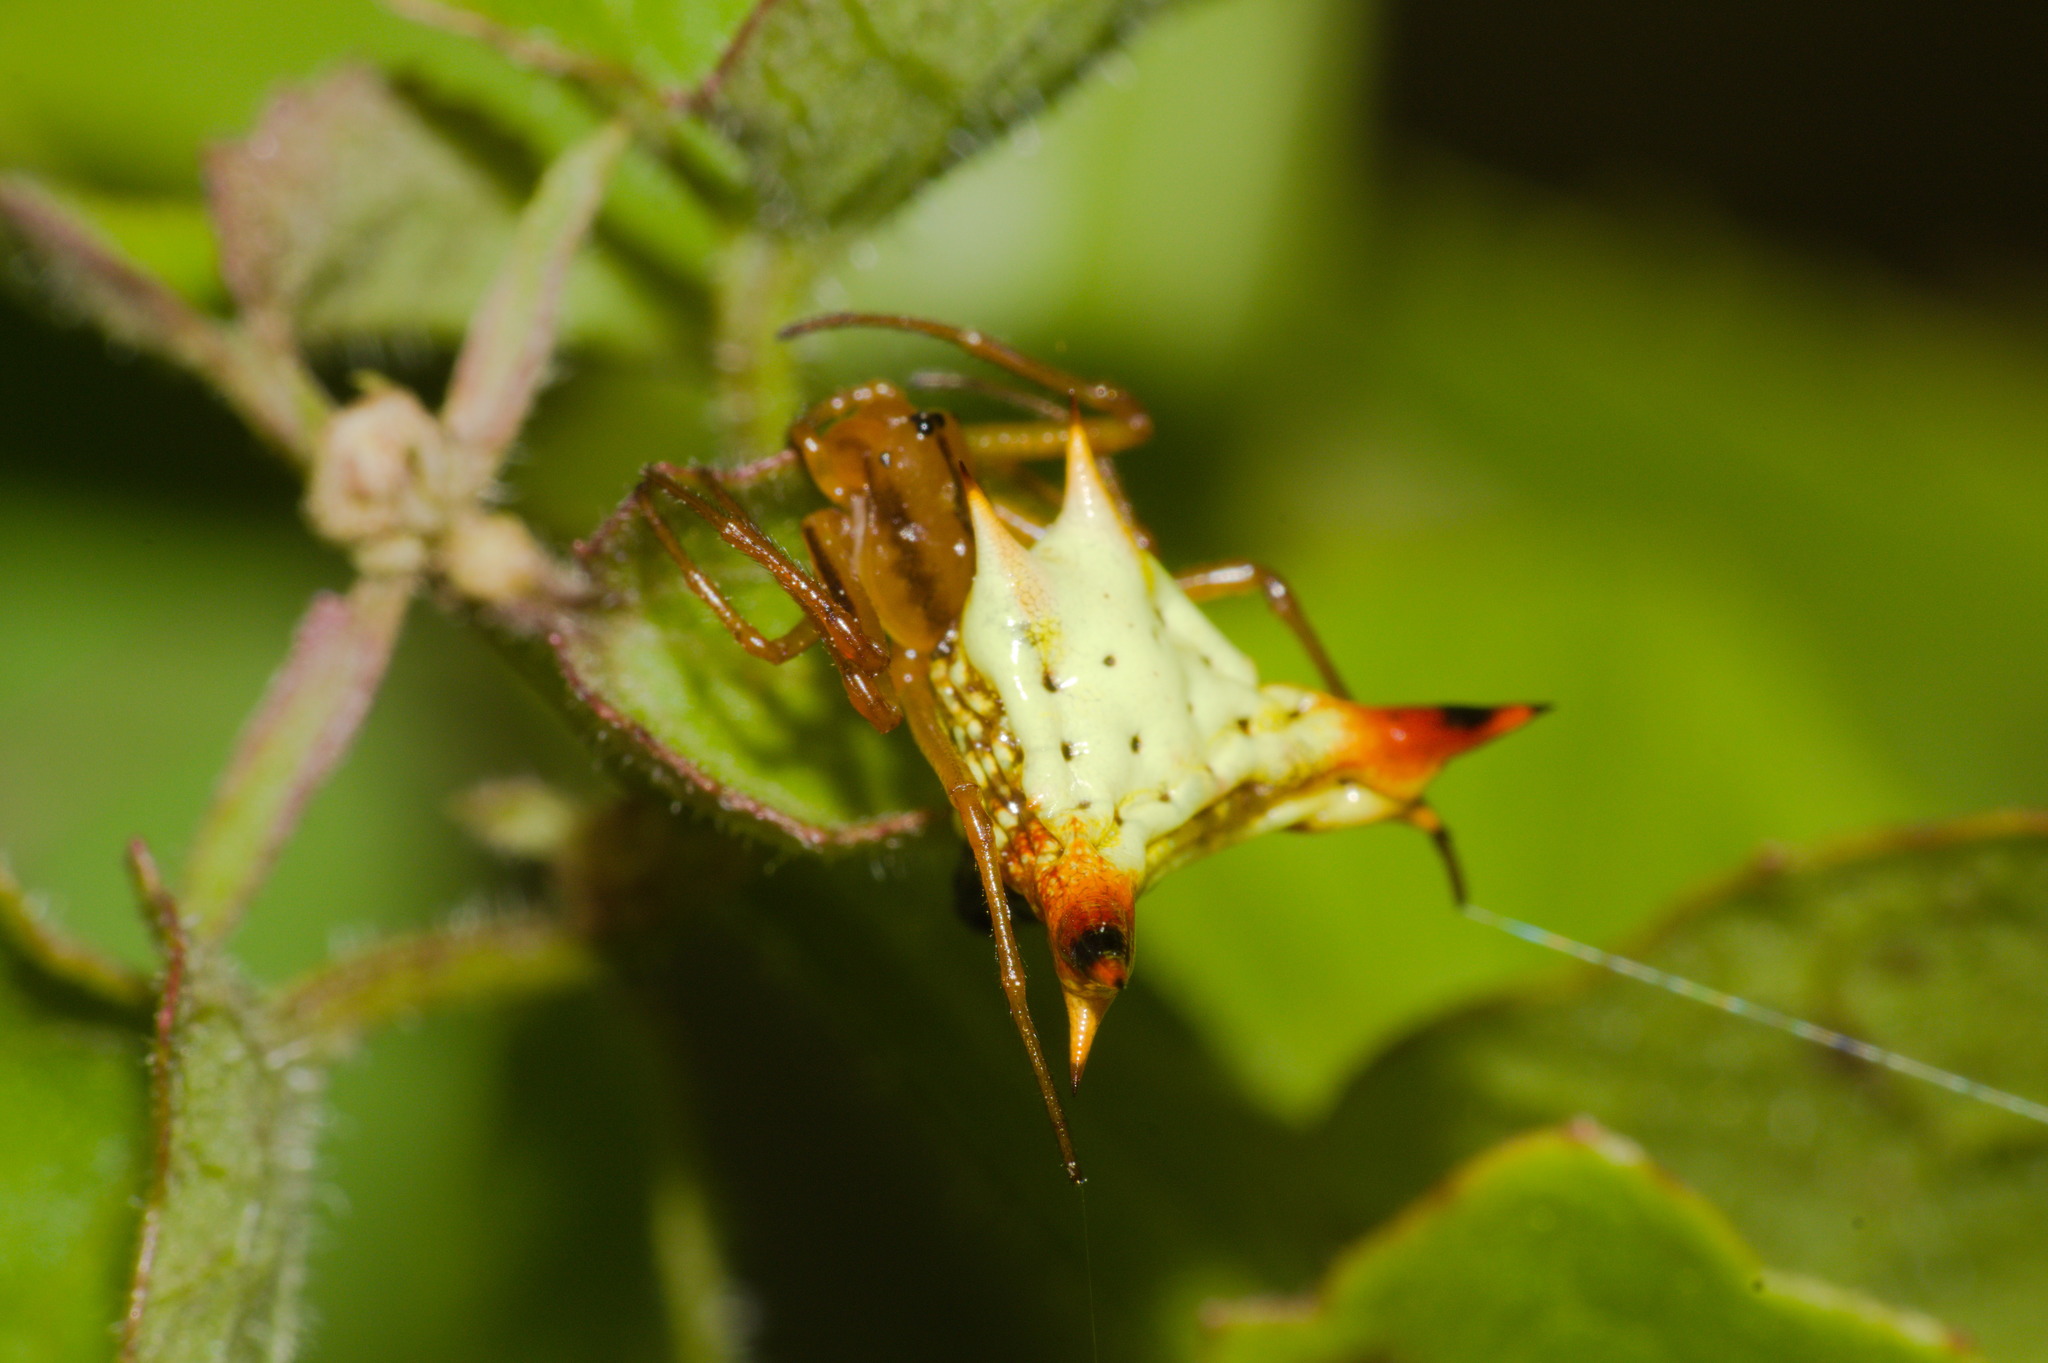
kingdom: Animalia
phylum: Arthropoda
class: Arachnida
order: Araneae
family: Araneidae
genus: Micrathena
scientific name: Micrathena furcata
